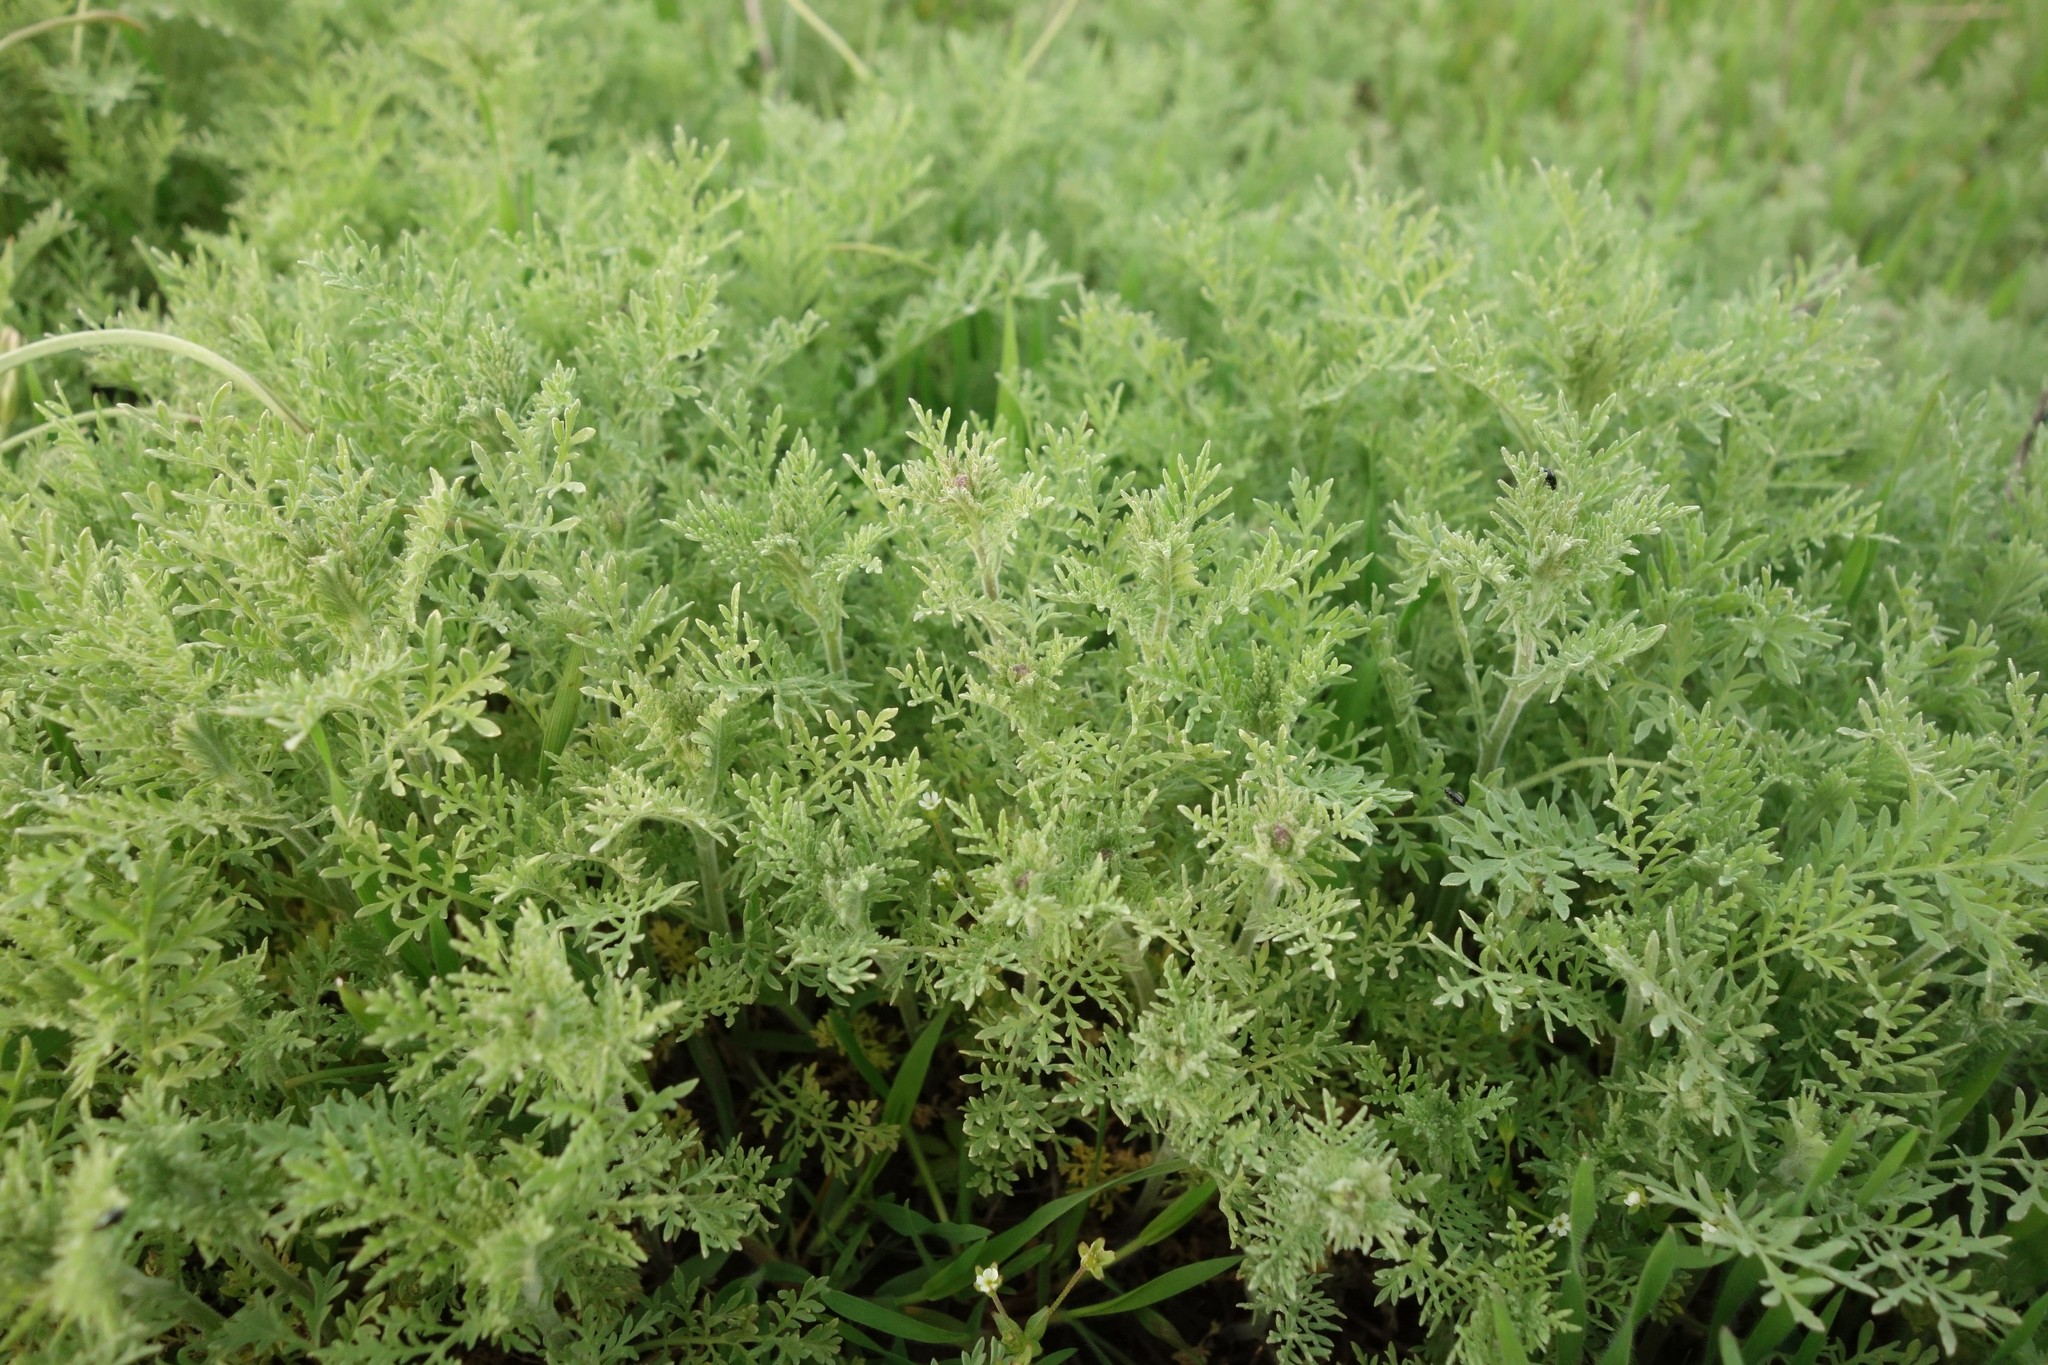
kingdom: Plantae
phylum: Tracheophyta
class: Magnoliopsida
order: Brassicales
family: Brassicaceae
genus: Descurainia
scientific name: Descurainia sophia
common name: Flixweed
